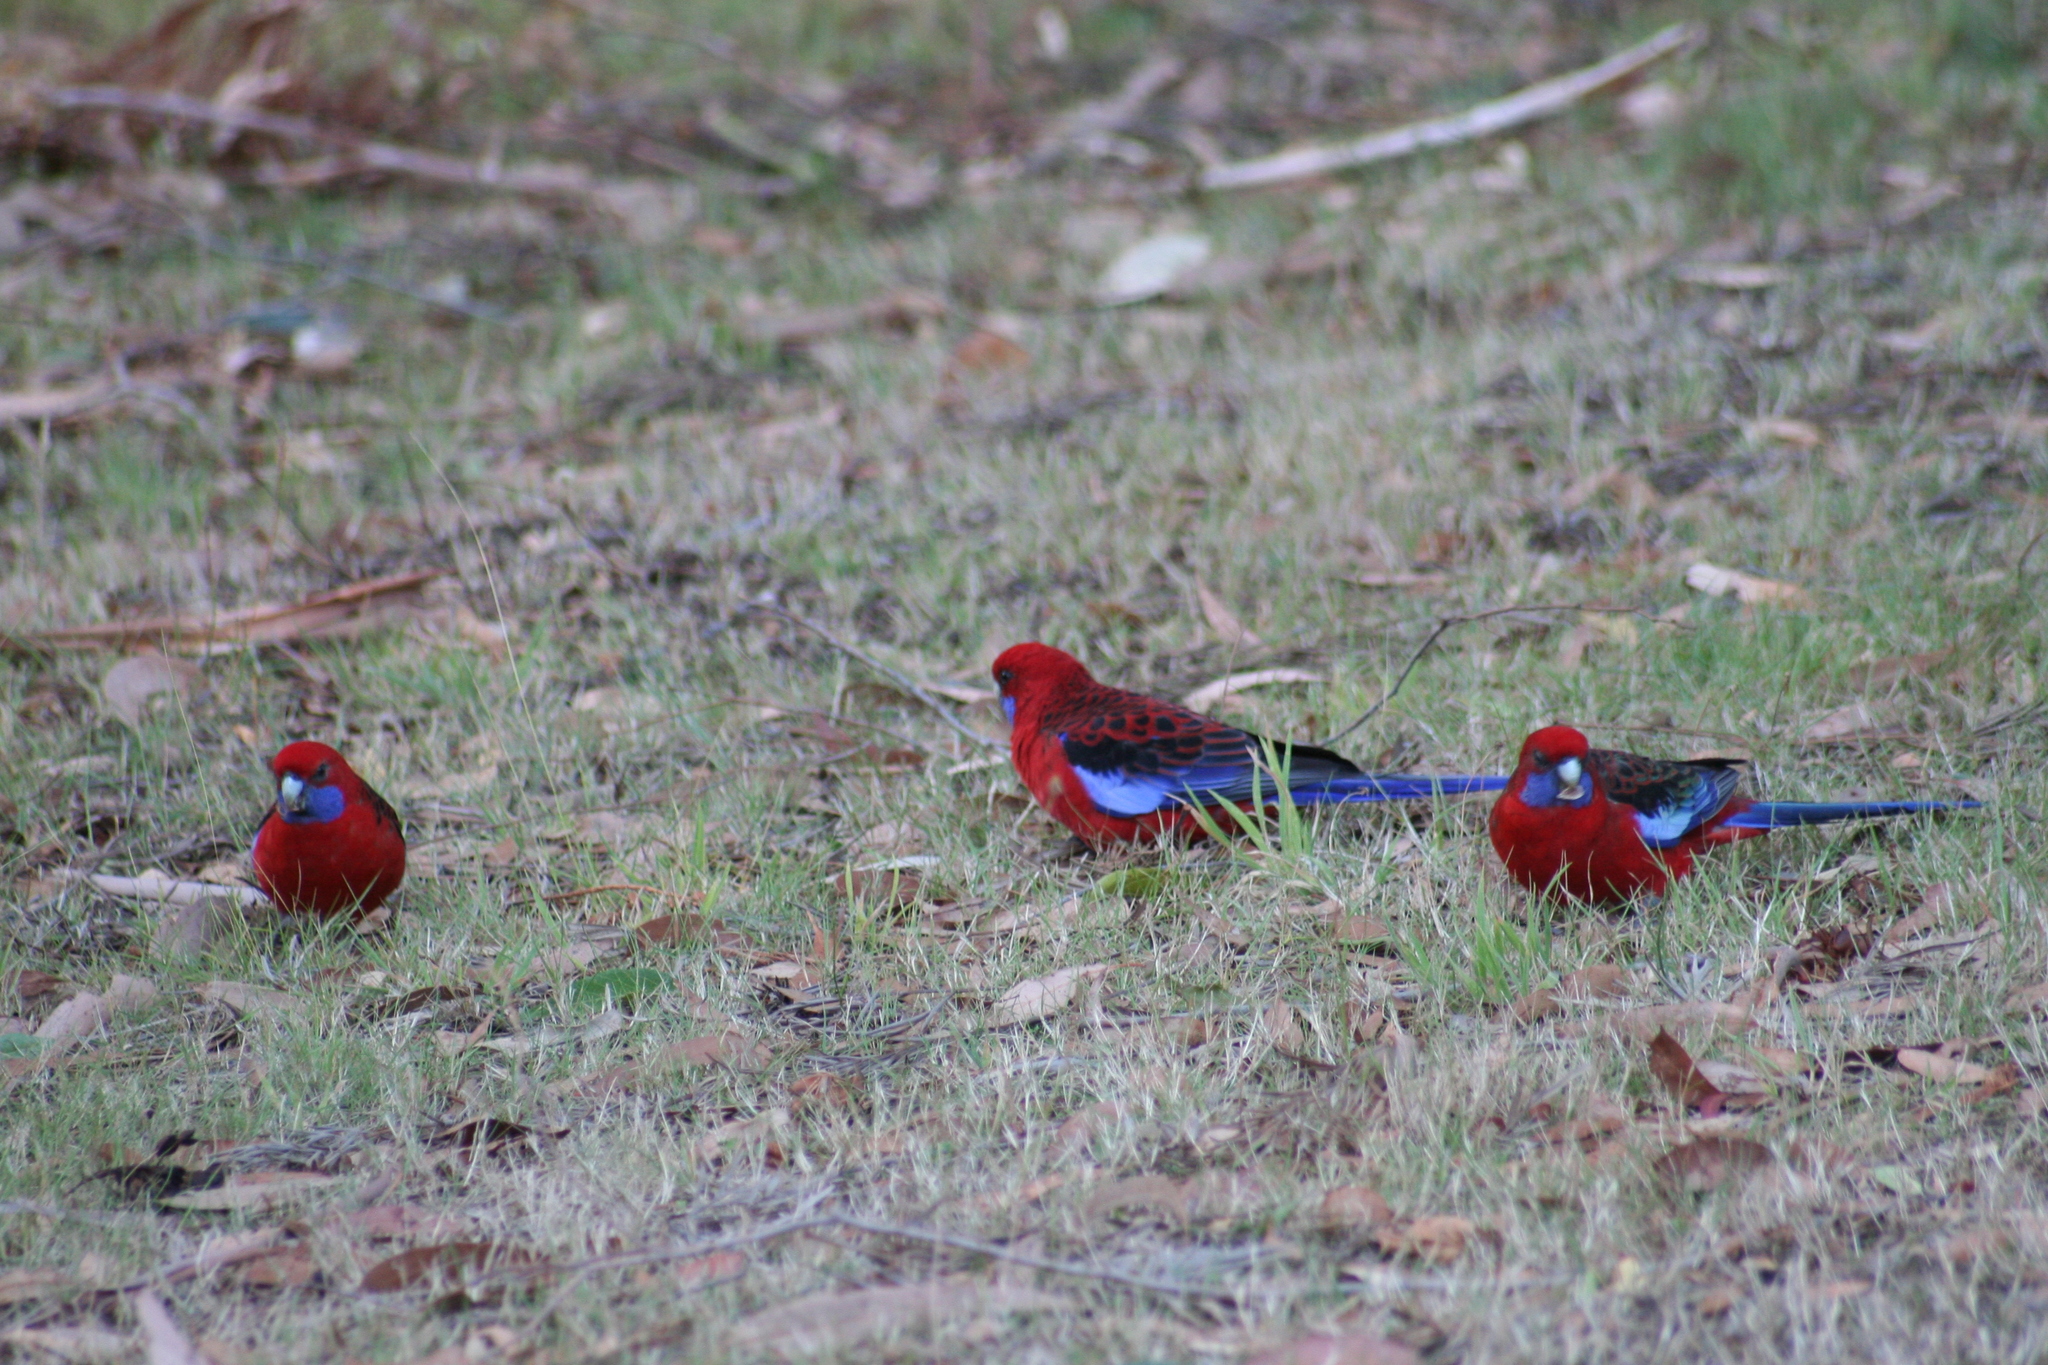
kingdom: Animalia
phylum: Chordata
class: Aves
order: Psittaciformes
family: Psittacidae
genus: Platycercus
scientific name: Platycercus elegans
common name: Crimson rosella
